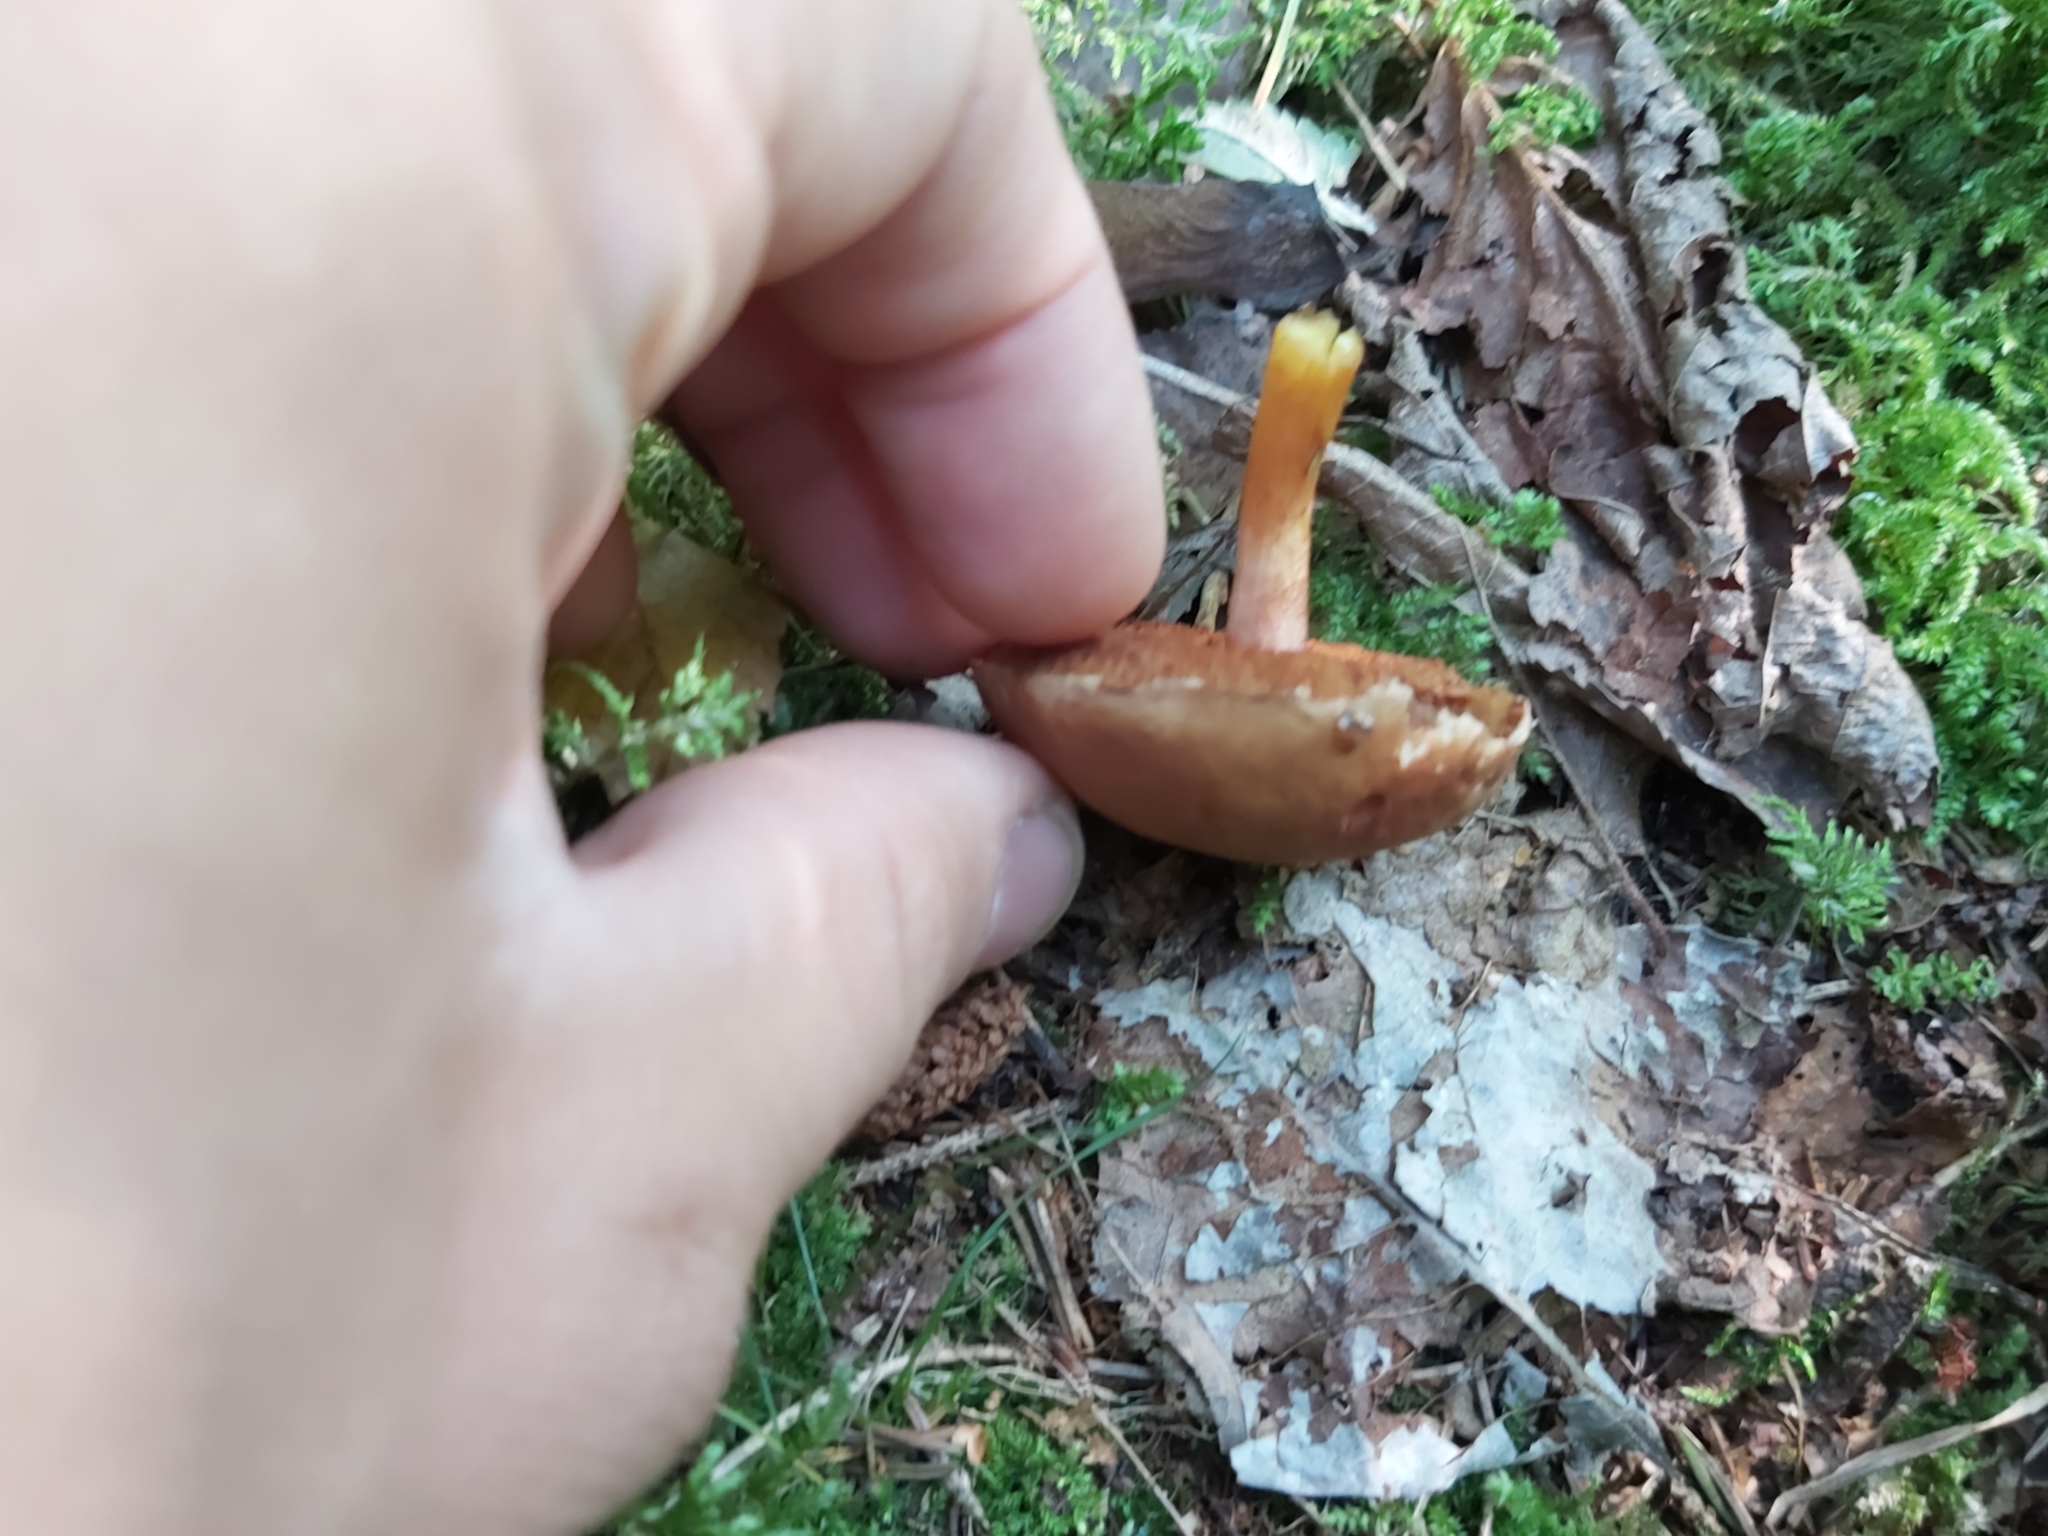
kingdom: Fungi
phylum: Basidiomycota
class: Agaricomycetes
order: Boletales
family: Boletaceae
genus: Chalciporus
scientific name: Chalciporus piperatus
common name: Peppery bolete
